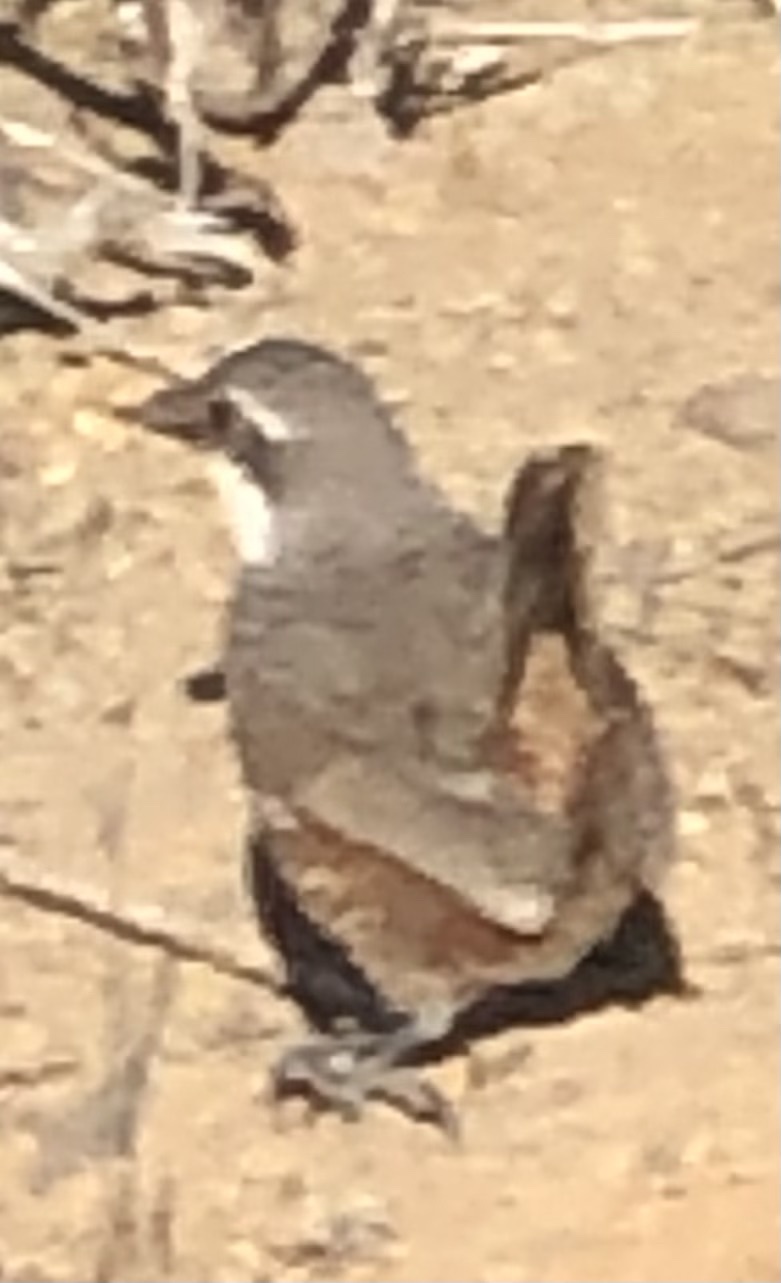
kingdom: Animalia
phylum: Chordata
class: Aves
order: Passeriformes
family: Rhinocryptidae
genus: Pteroptochos
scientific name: Pteroptochos megapodius
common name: Moustached turca
